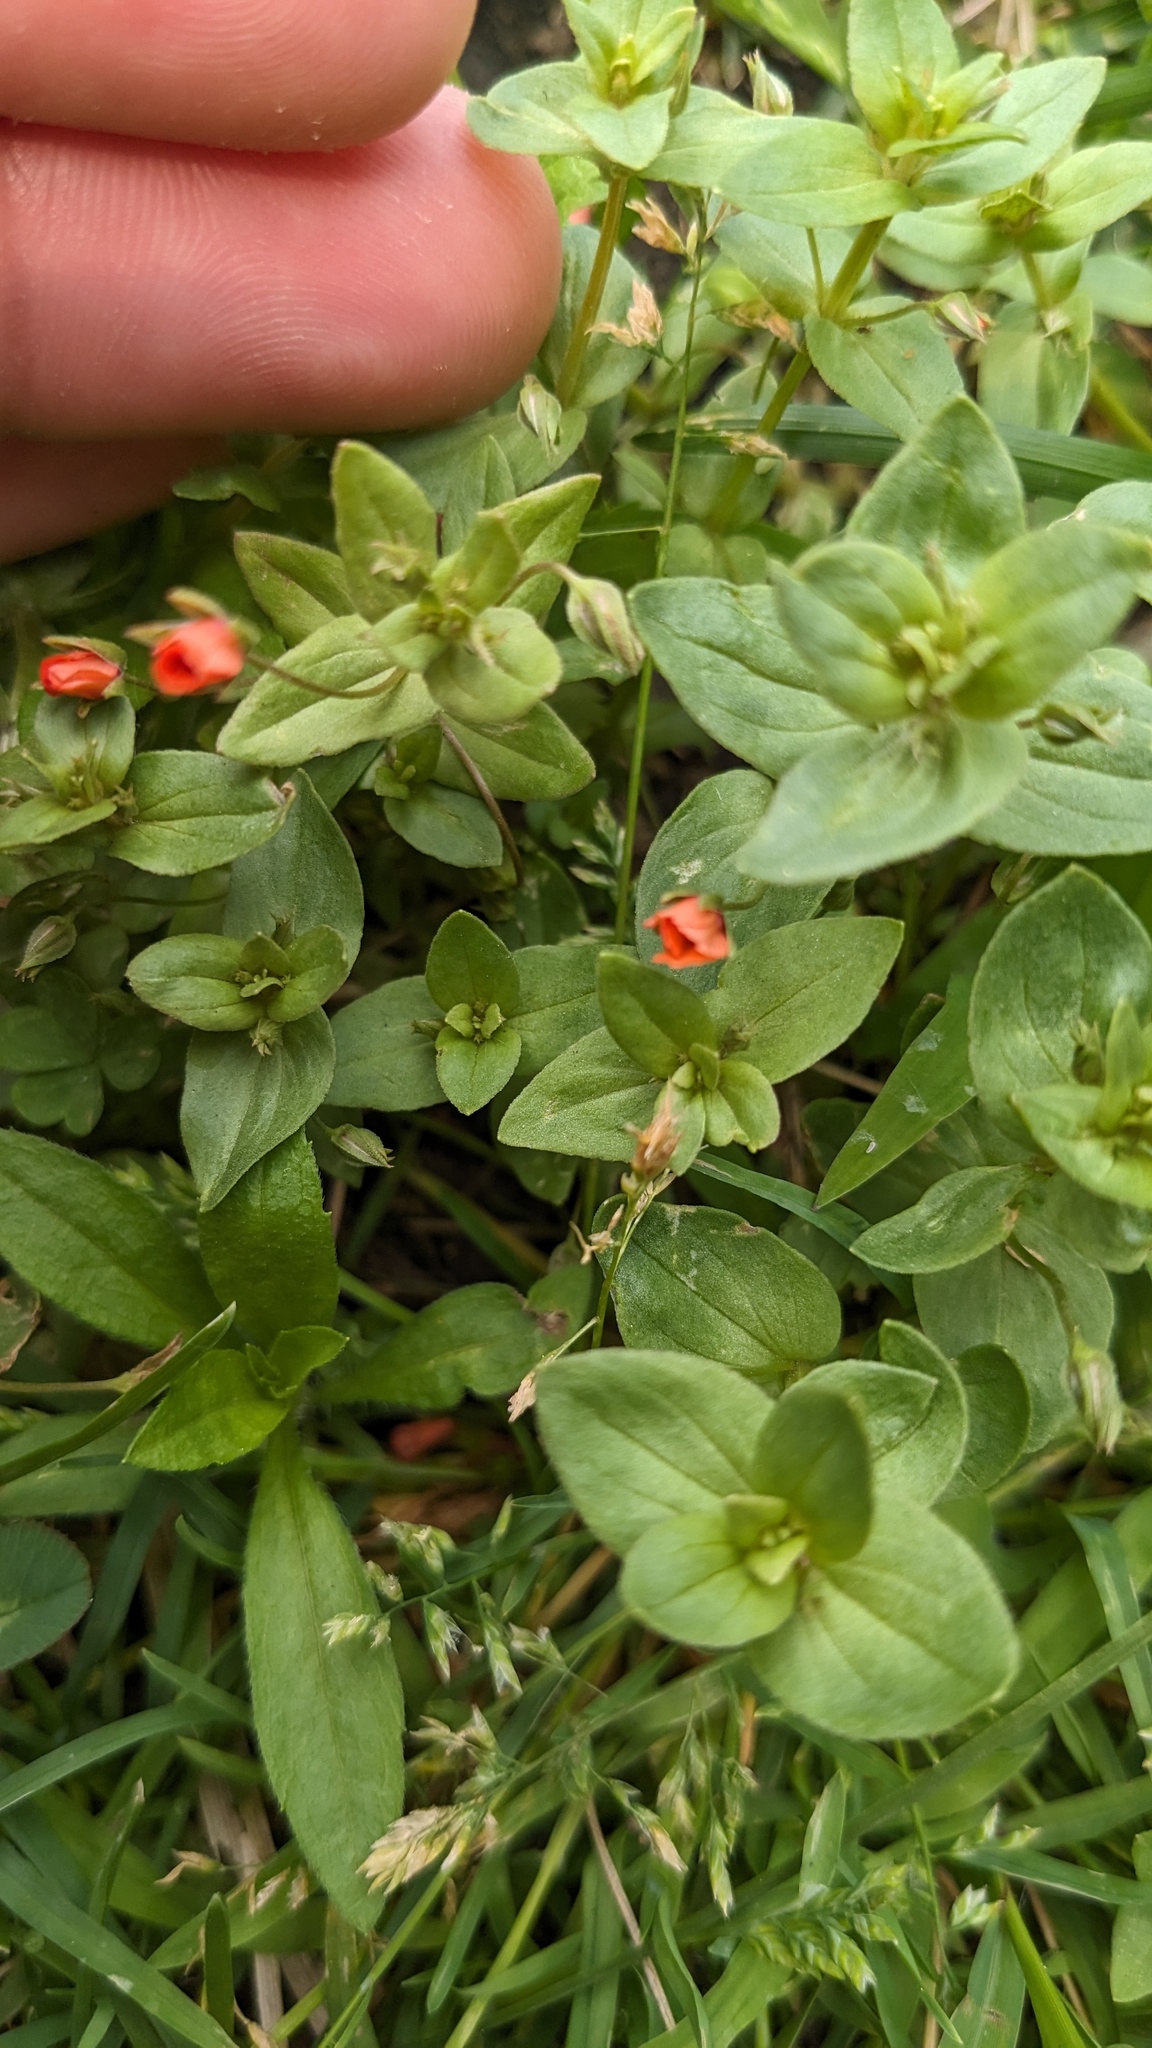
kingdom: Plantae
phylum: Tracheophyta
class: Magnoliopsida
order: Ericales
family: Primulaceae
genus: Lysimachia
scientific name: Lysimachia arvensis
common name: Scarlet pimpernel
